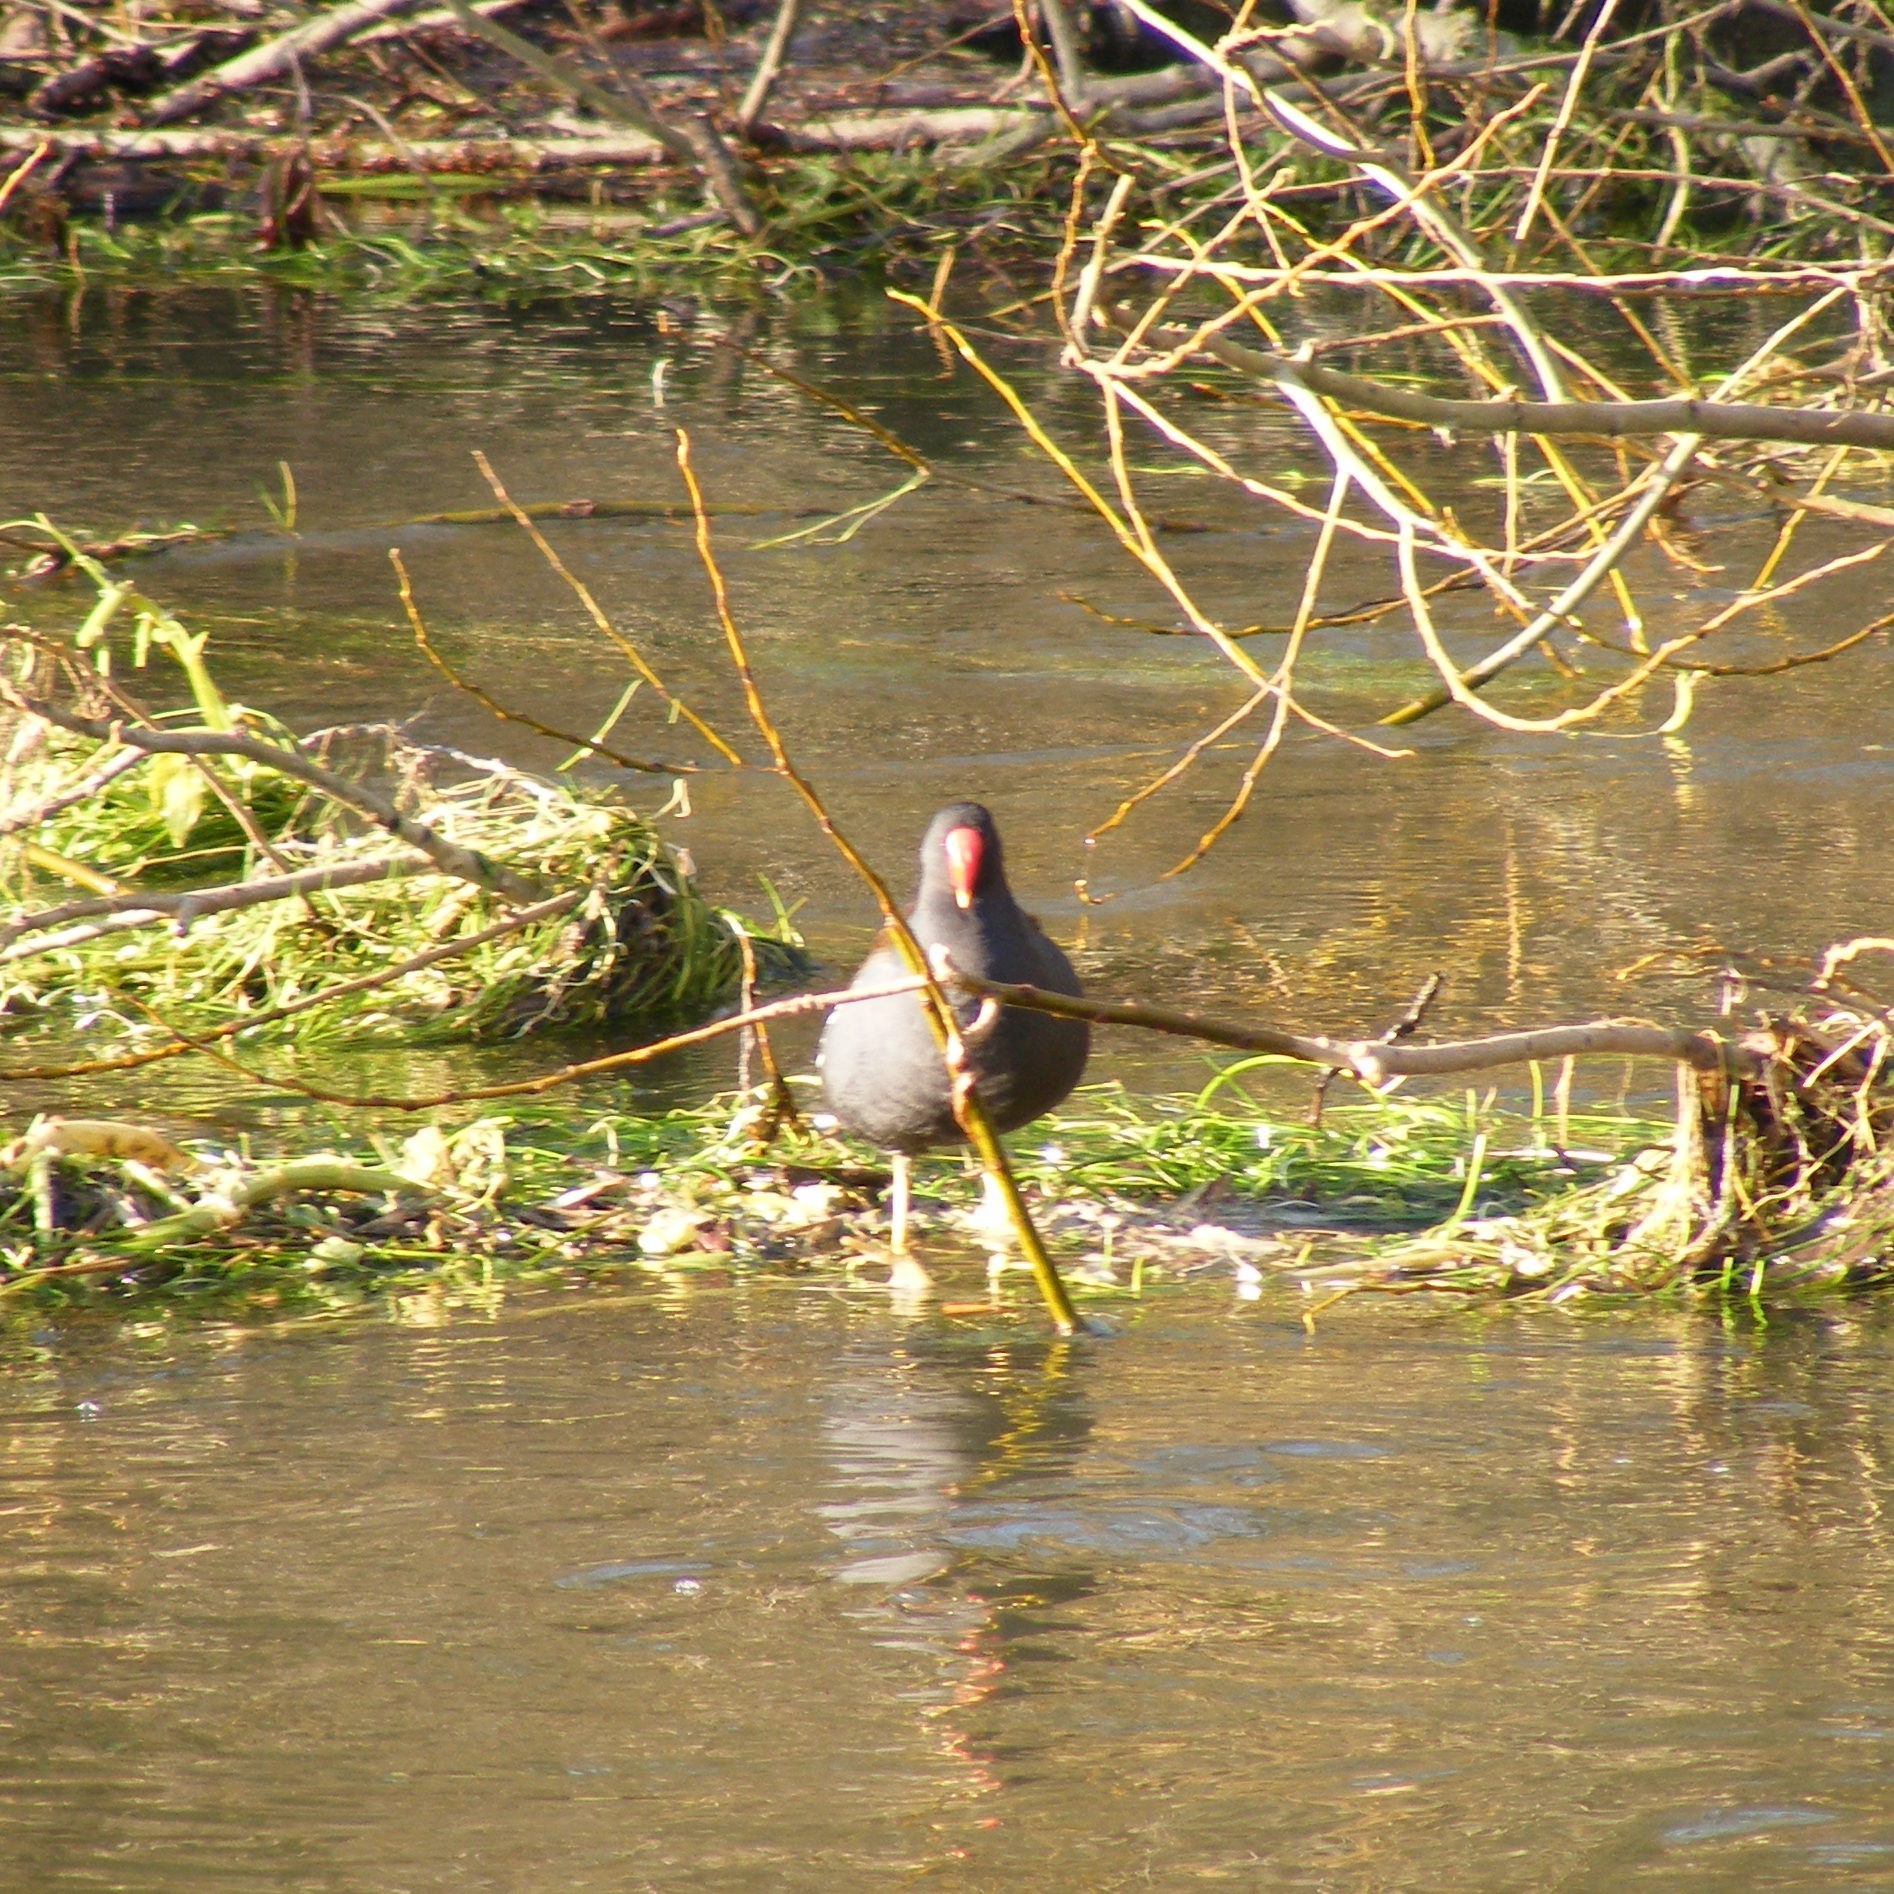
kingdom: Animalia
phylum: Chordata
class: Aves
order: Gruiformes
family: Rallidae
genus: Gallinula
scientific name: Gallinula chloropus
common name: Common moorhen
